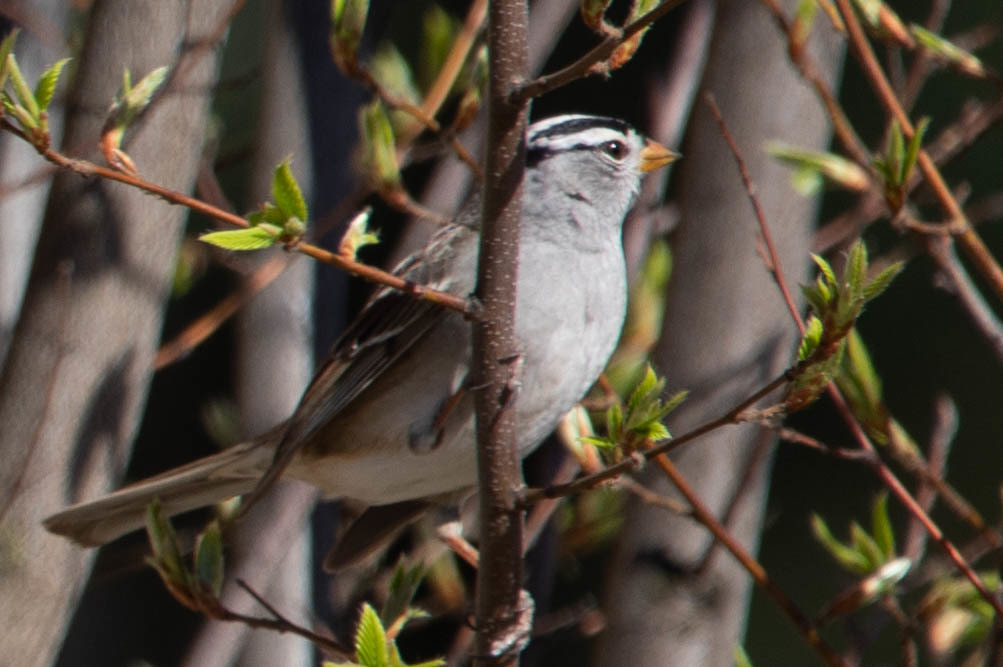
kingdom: Animalia
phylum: Chordata
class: Aves
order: Passeriformes
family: Passerellidae
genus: Zonotrichia
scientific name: Zonotrichia leucophrys
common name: White-crowned sparrow
